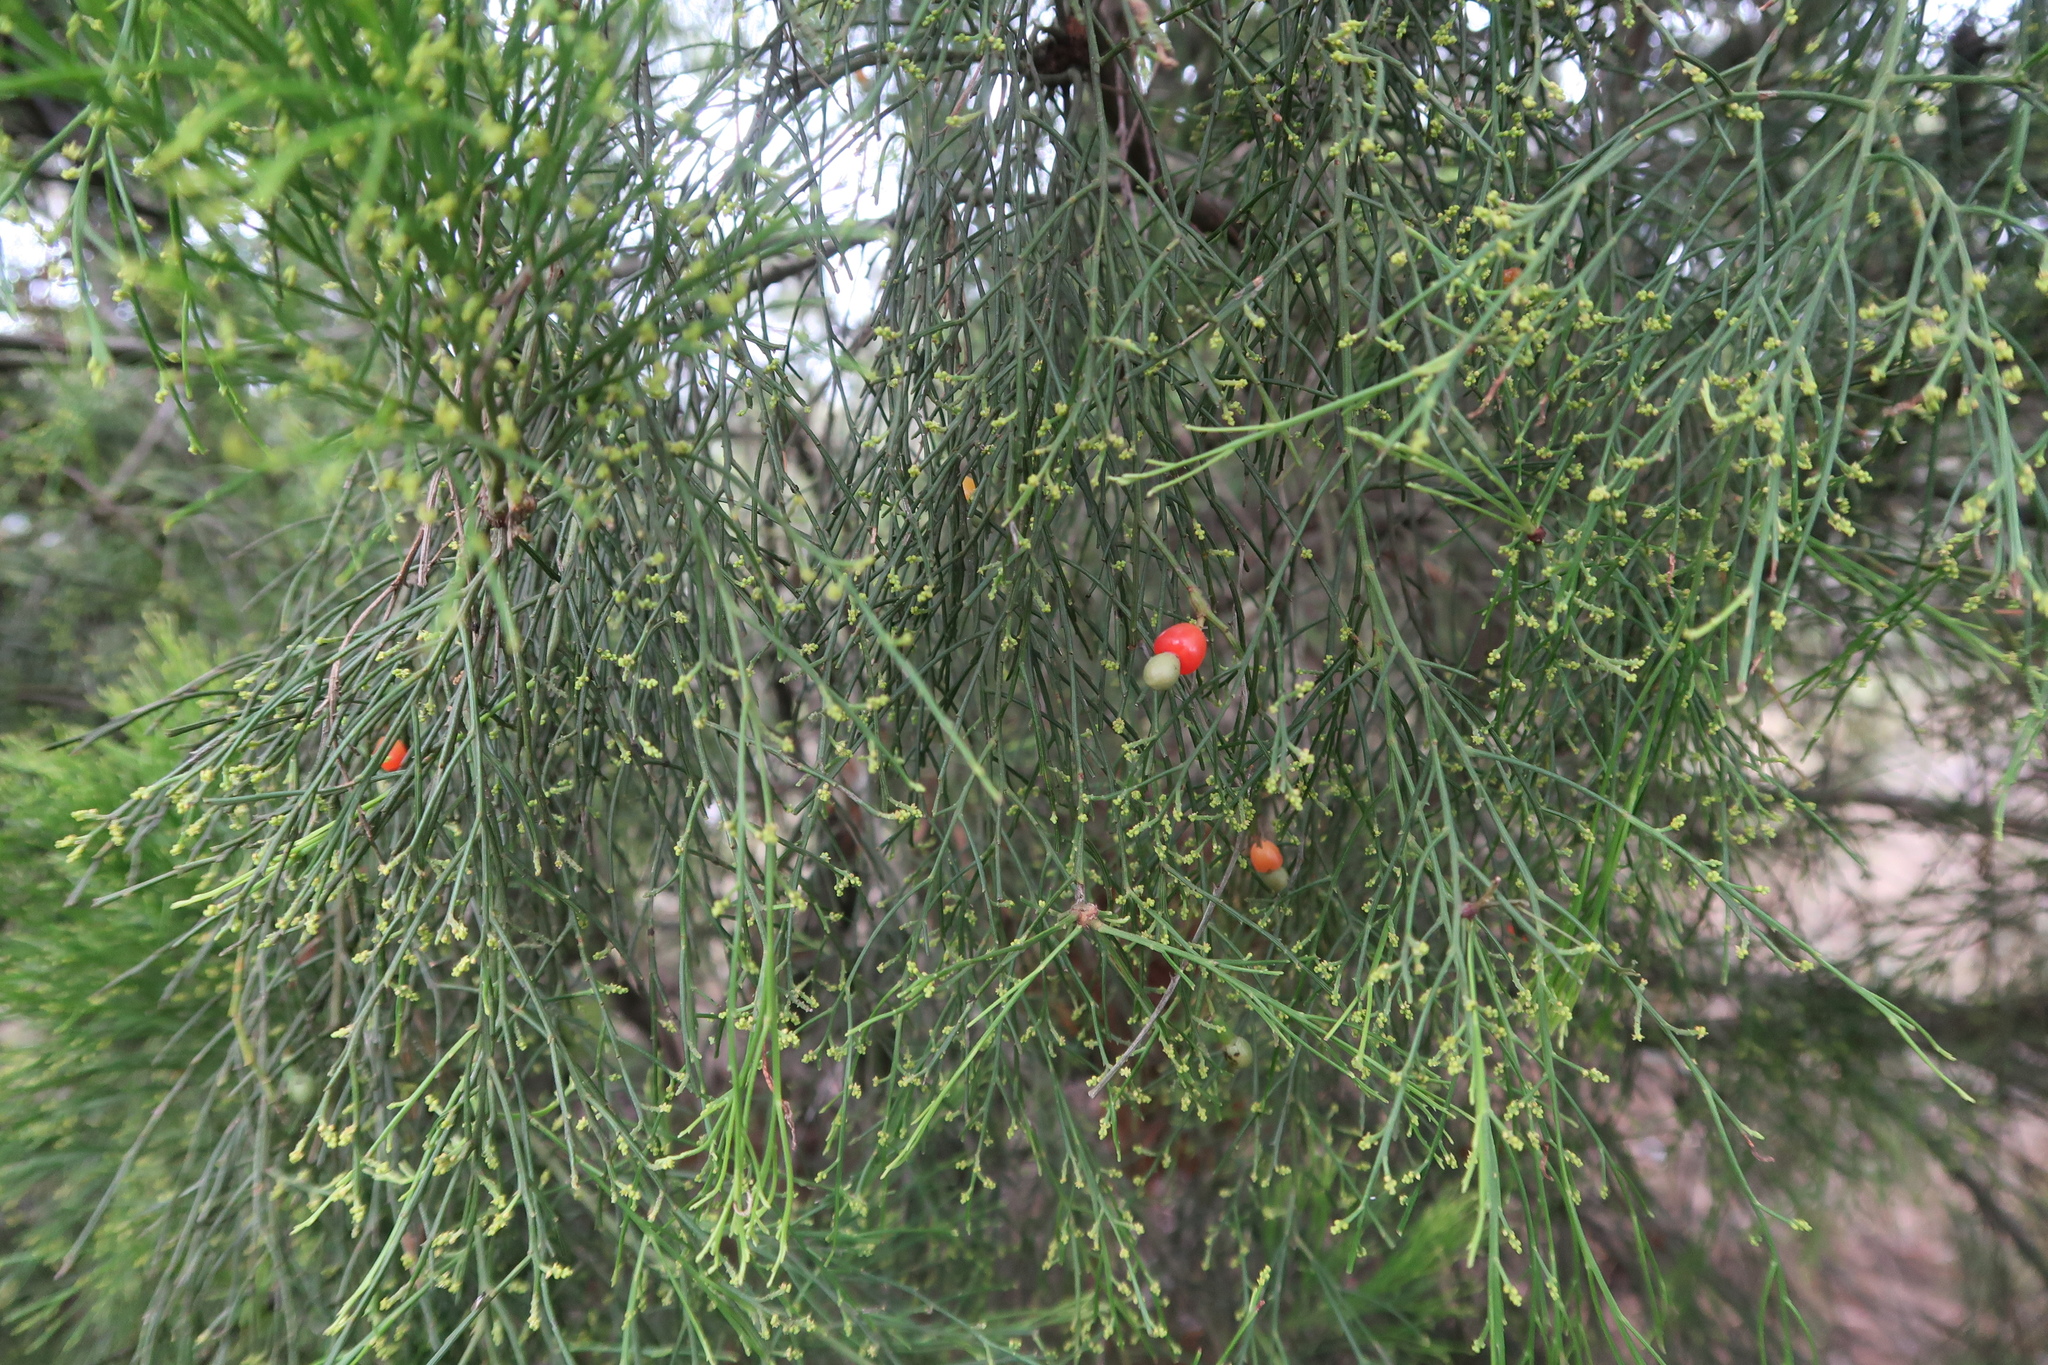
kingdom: Plantae
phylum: Tracheophyta
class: Magnoliopsida
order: Santalales
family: Santalaceae
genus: Exocarpos
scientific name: Exocarpos cupressiformis
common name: Cherry ballart
